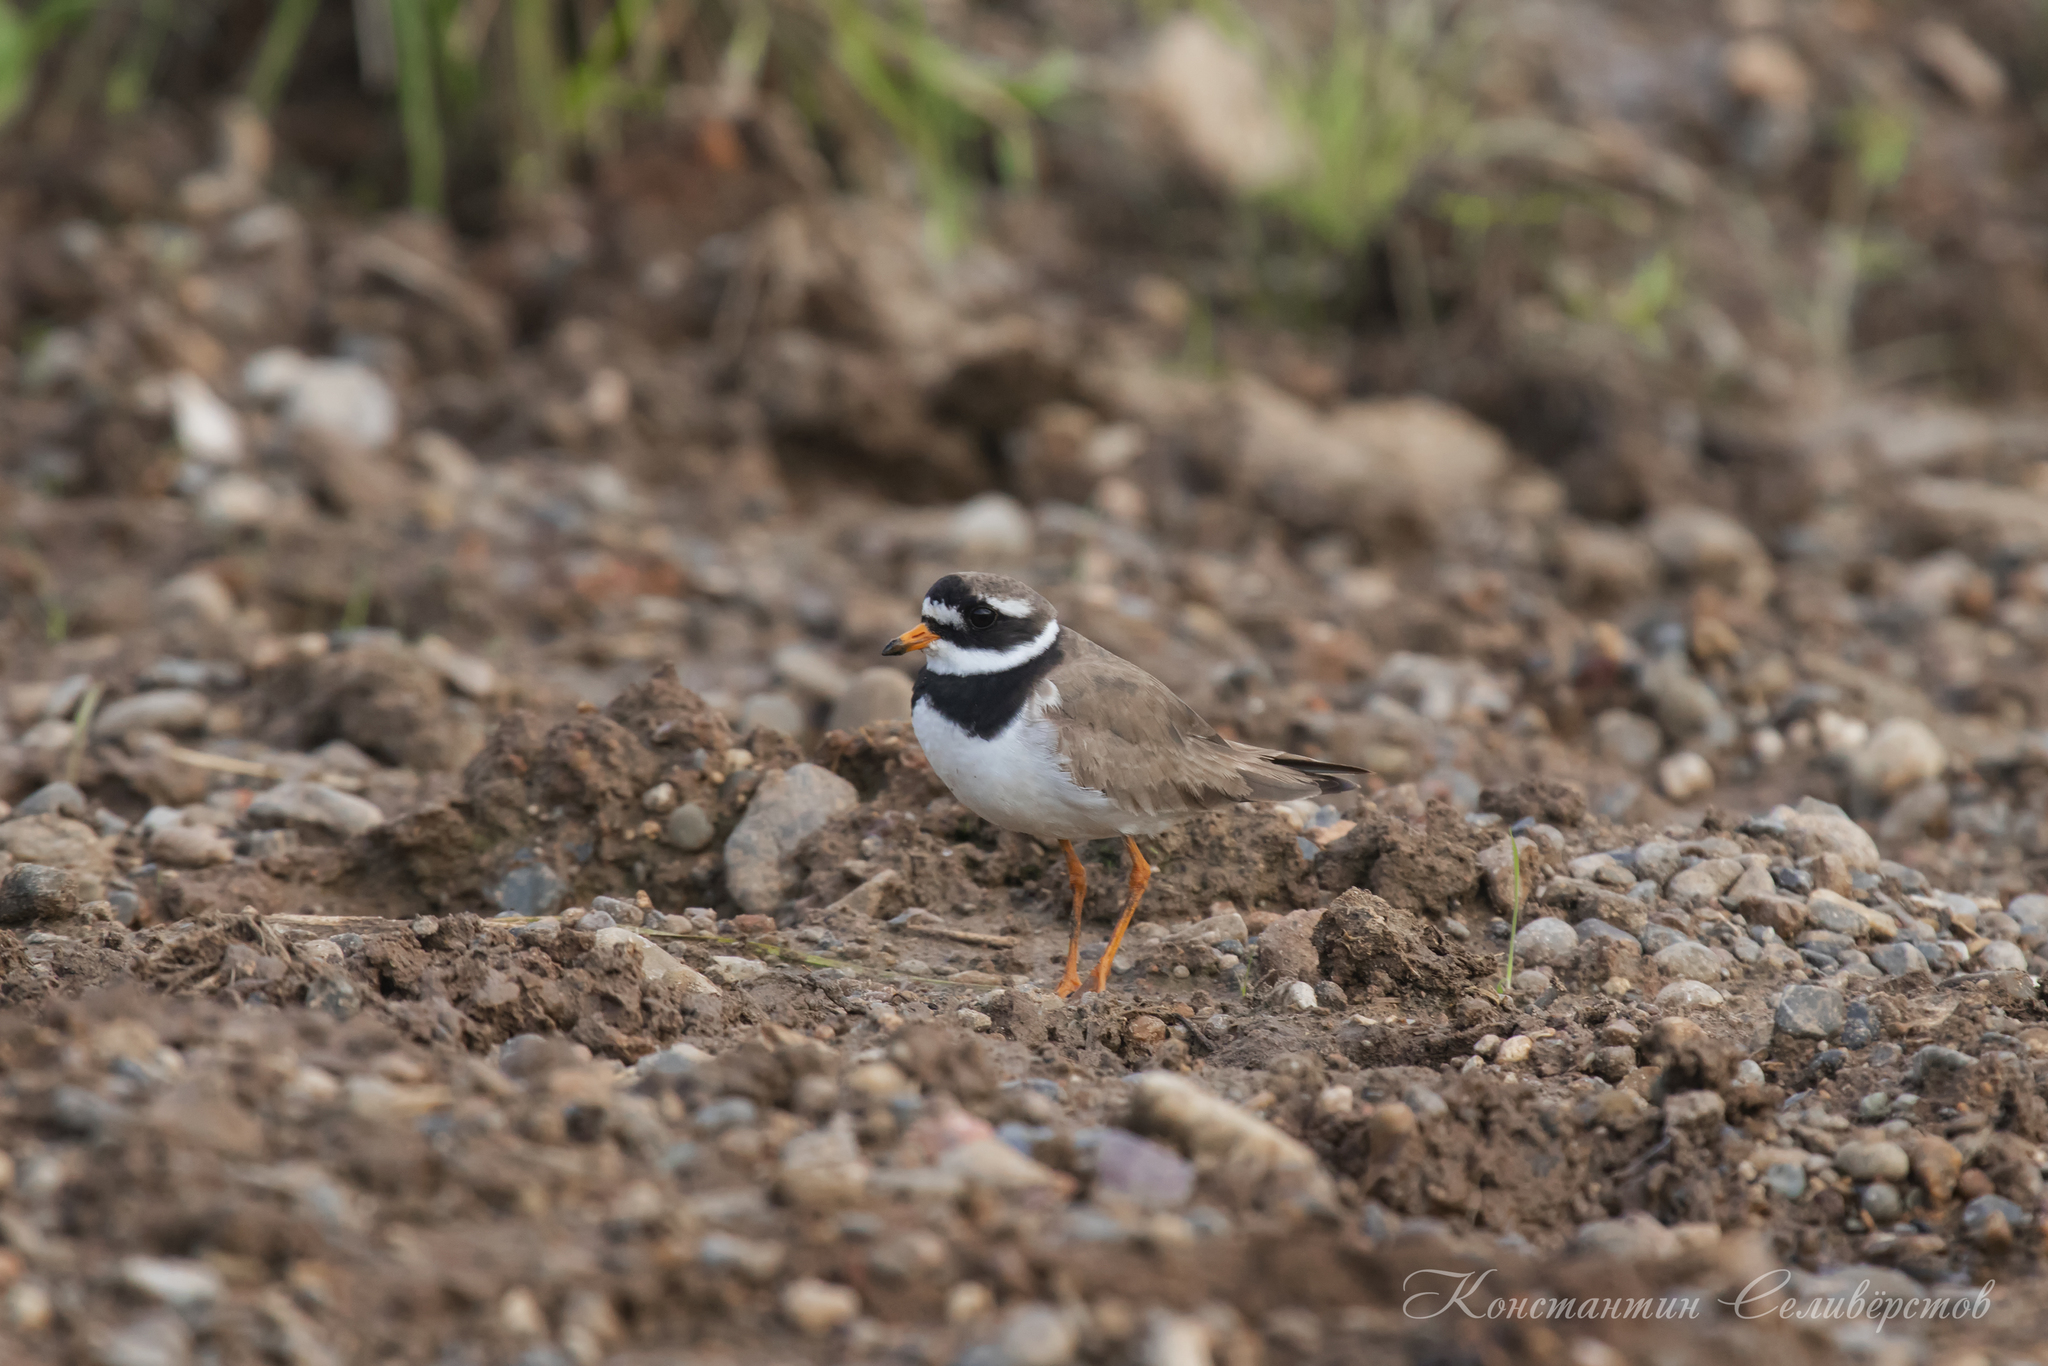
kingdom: Animalia
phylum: Chordata
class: Aves
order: Charadriiformes
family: Charadriidae
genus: Charadrius
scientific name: Charadrius hiaticula
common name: Common ringed plover
